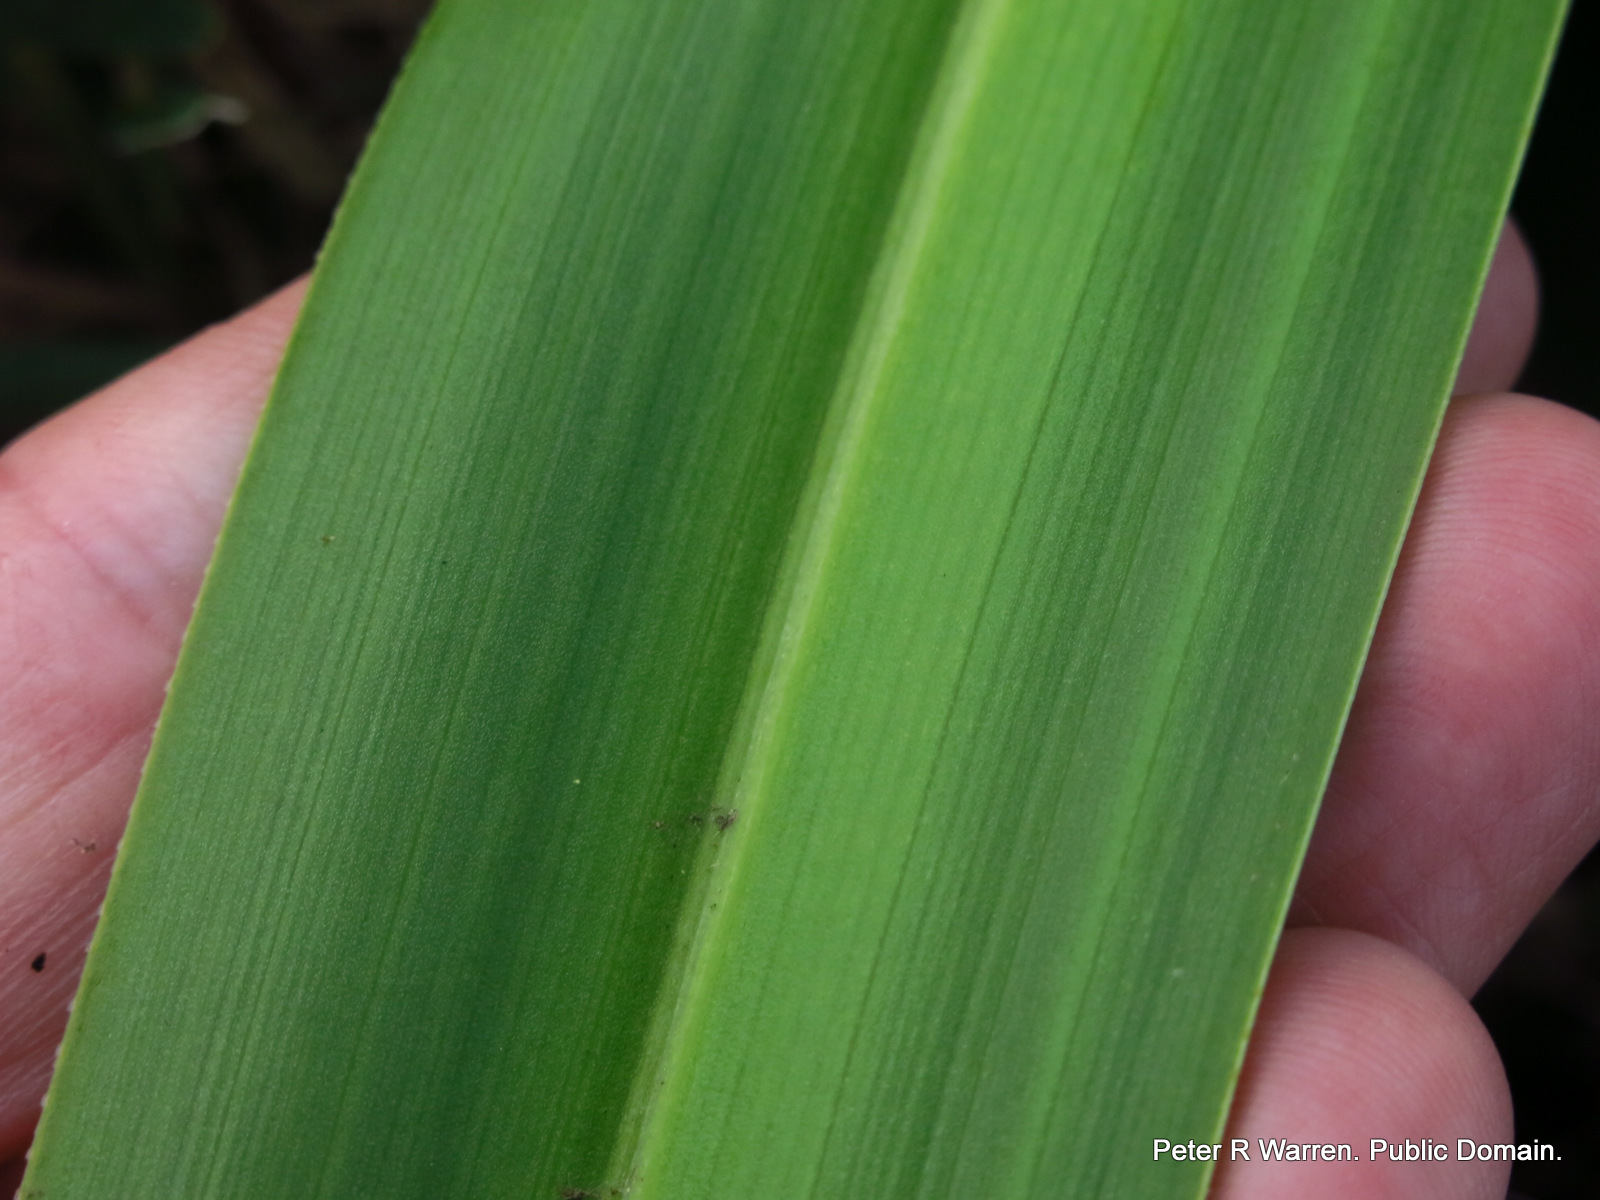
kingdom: Plantae
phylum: Tracheophyta
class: Liliopsida
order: Asparagales
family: Asphodelaceae
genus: Kniphofia
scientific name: Kniphofia rooperi
